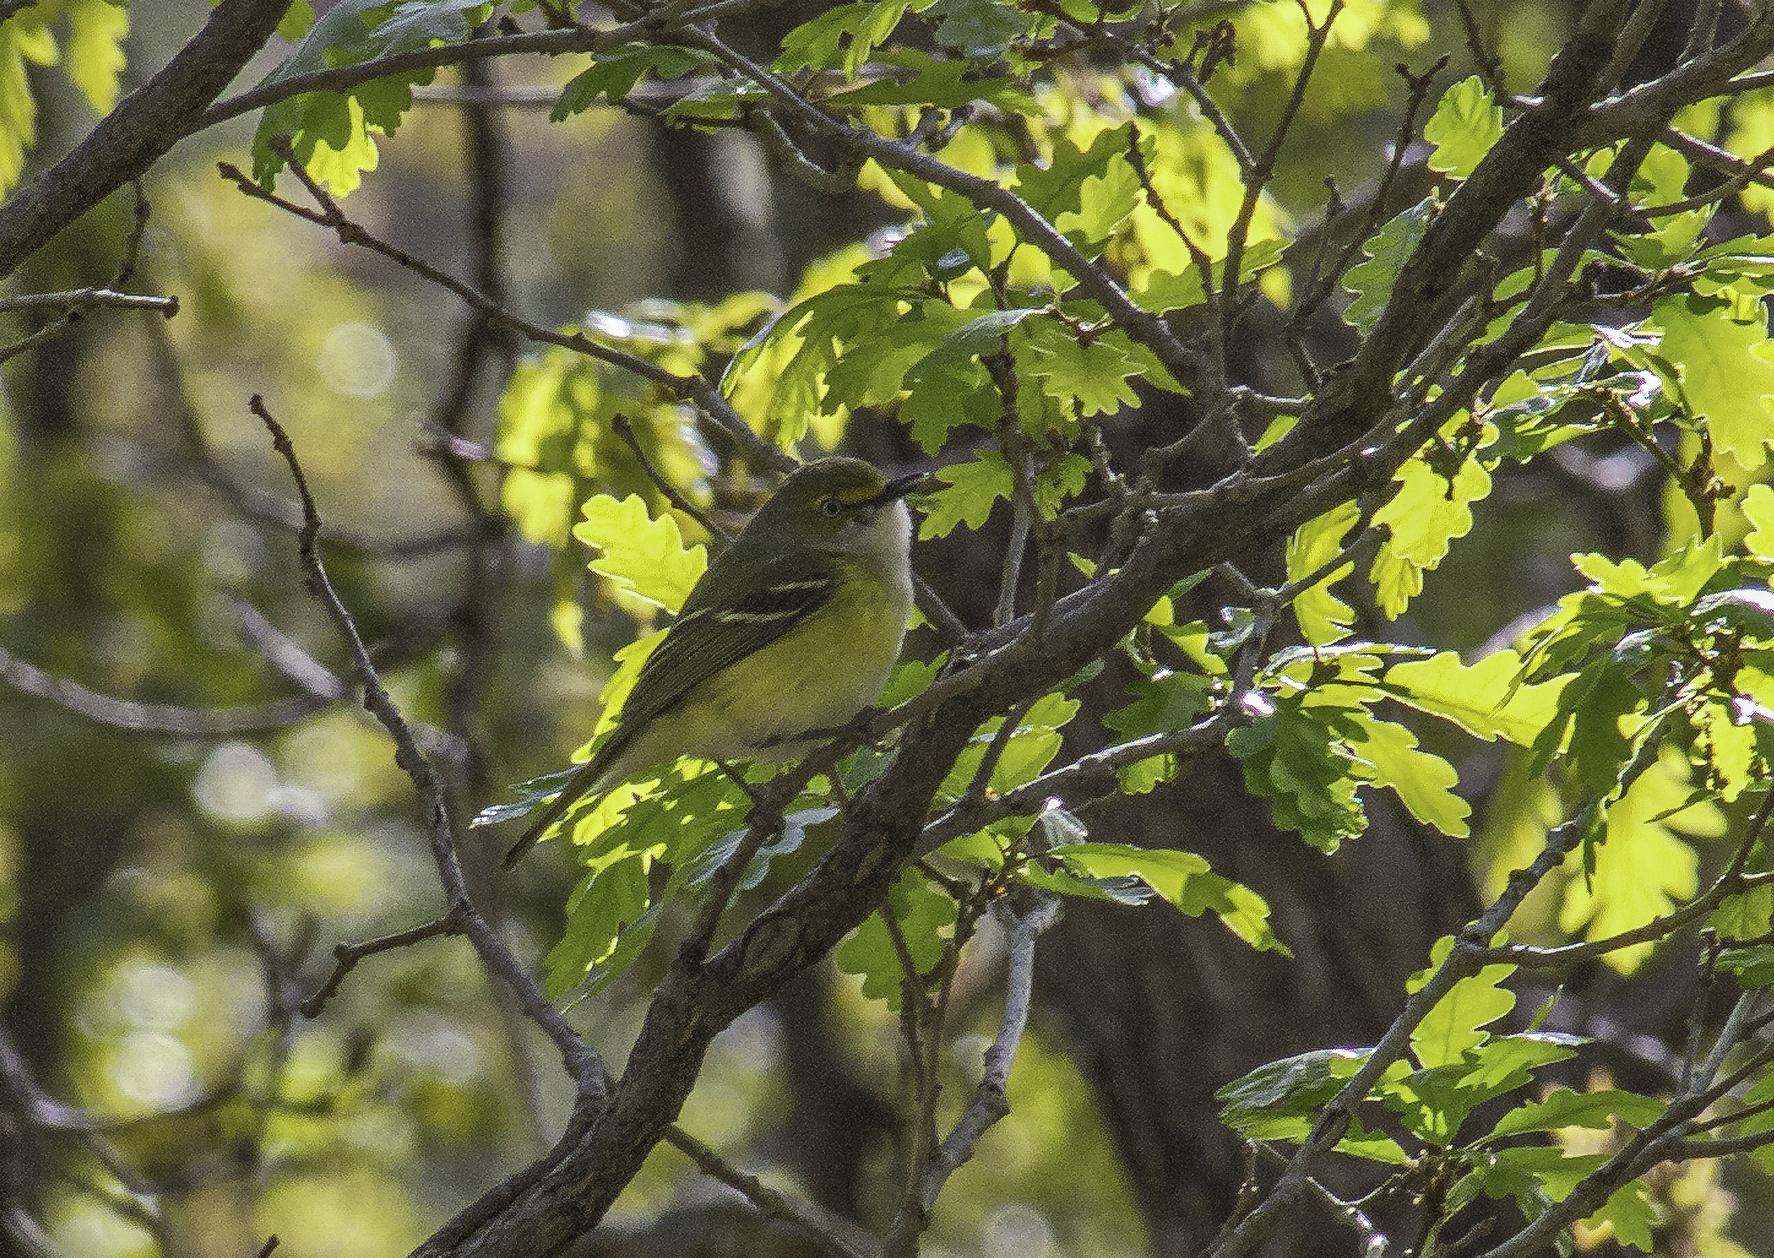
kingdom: Animalia
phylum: Chordata
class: Aves
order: Passeriformes
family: Vireonidae
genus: Vireo
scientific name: Vireo griseus
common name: White-eyed vireo
